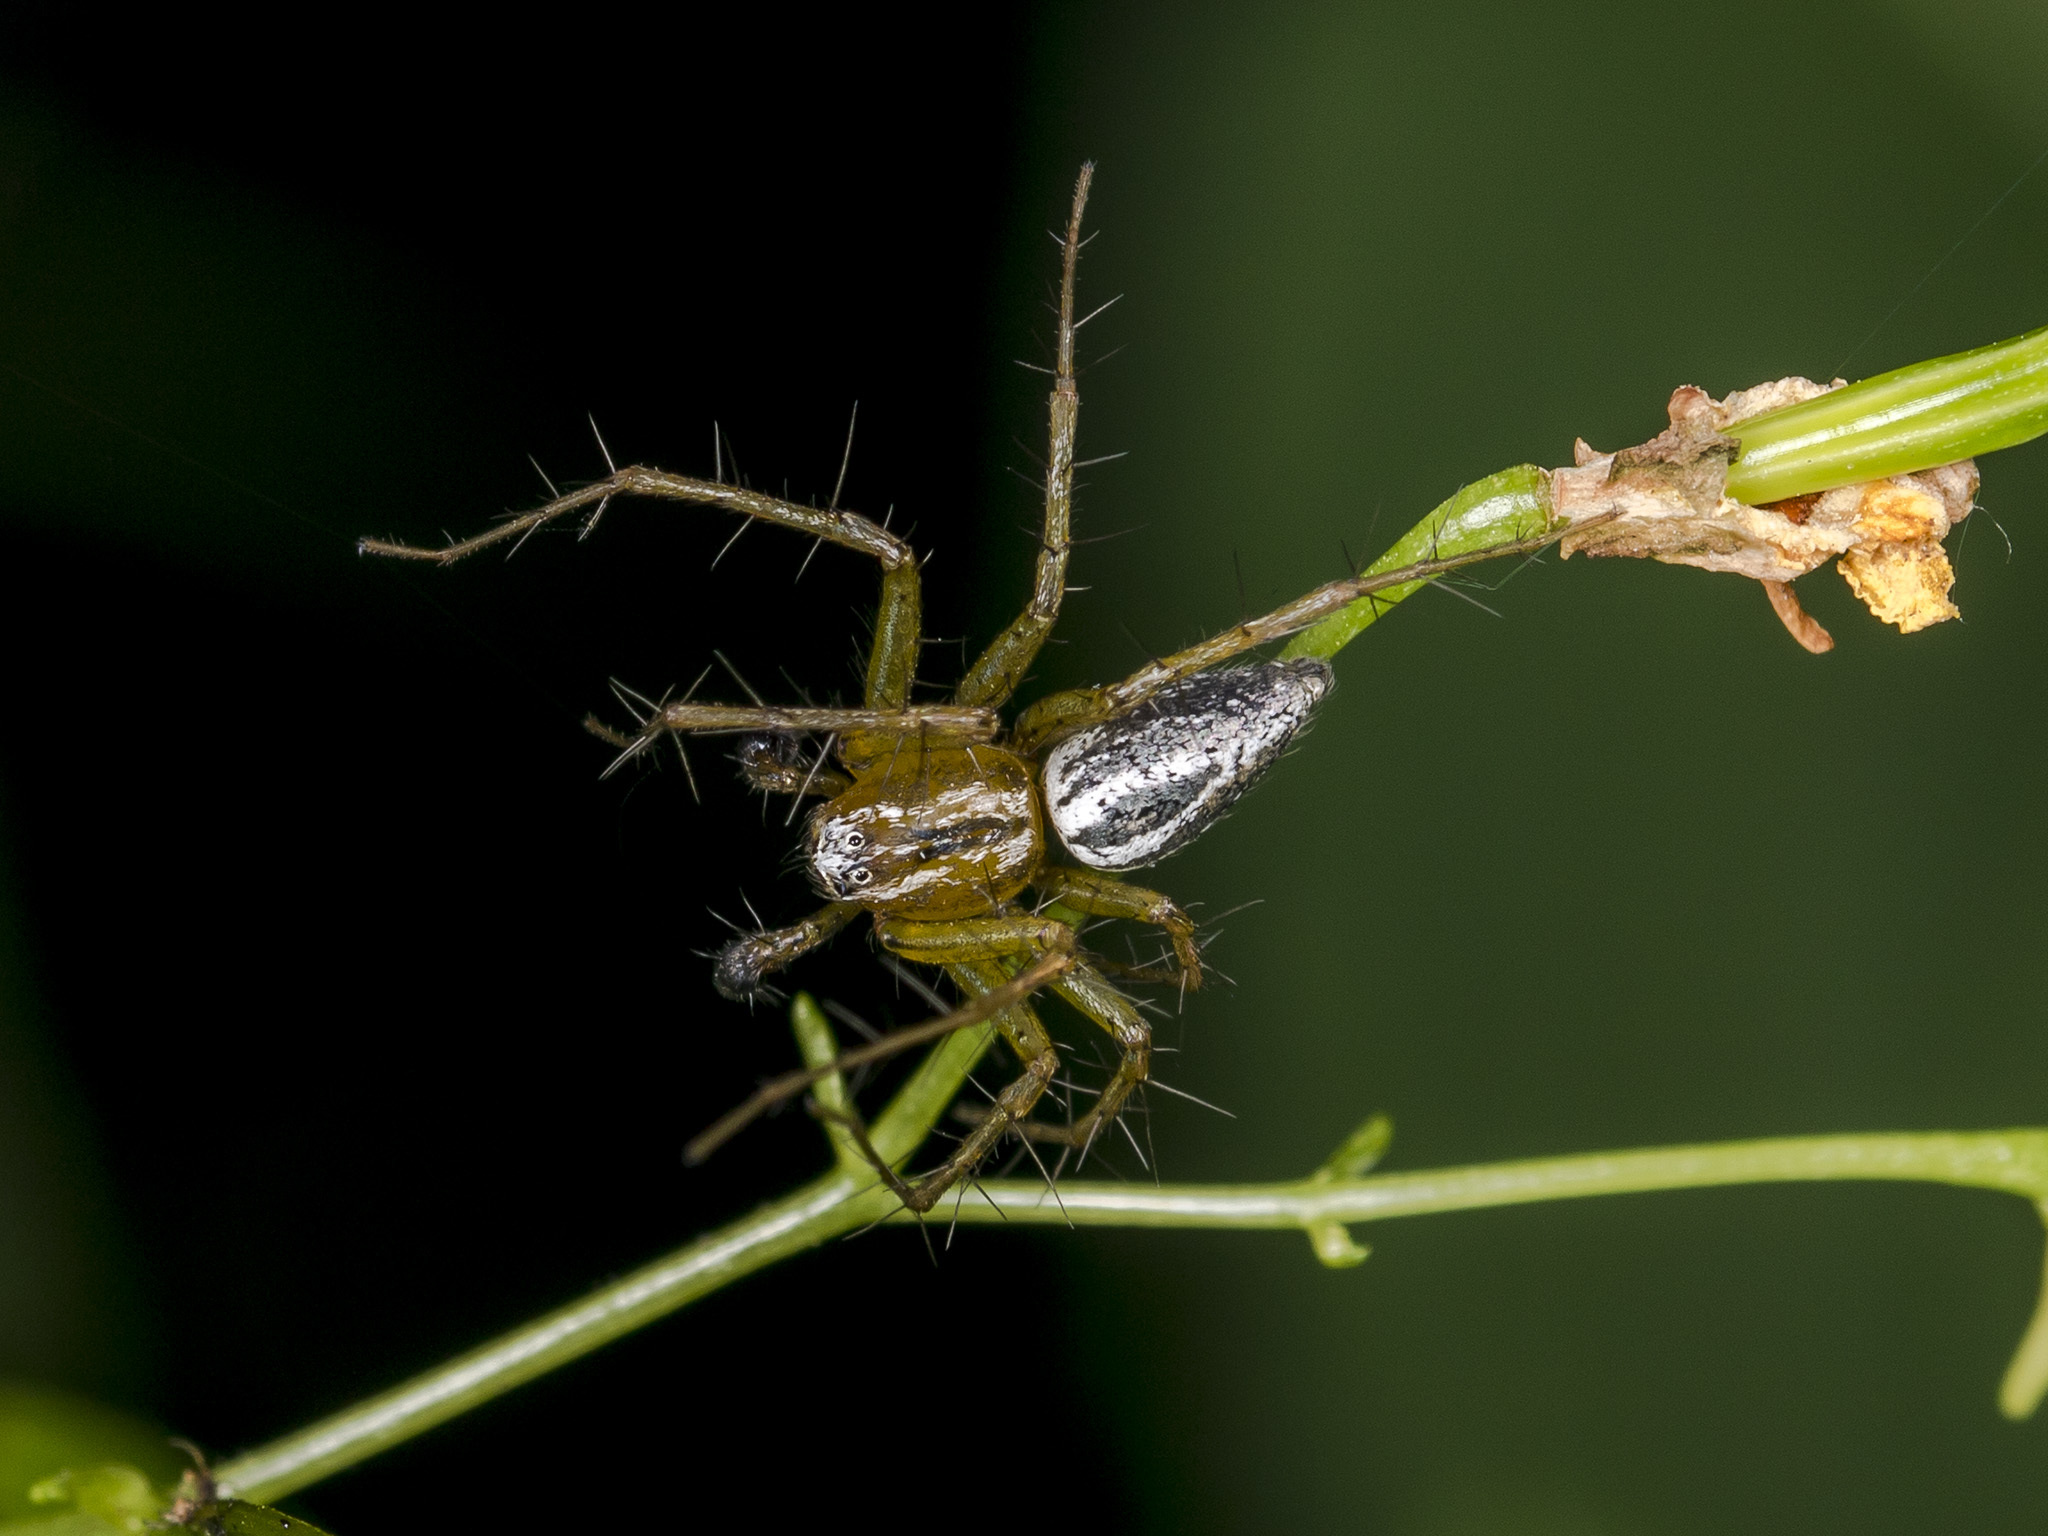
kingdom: Animalia
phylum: Arthropoda
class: Arachnida
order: Araneae
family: Oxyopidae
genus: Oxyopes
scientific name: Oxyopes lineatus
